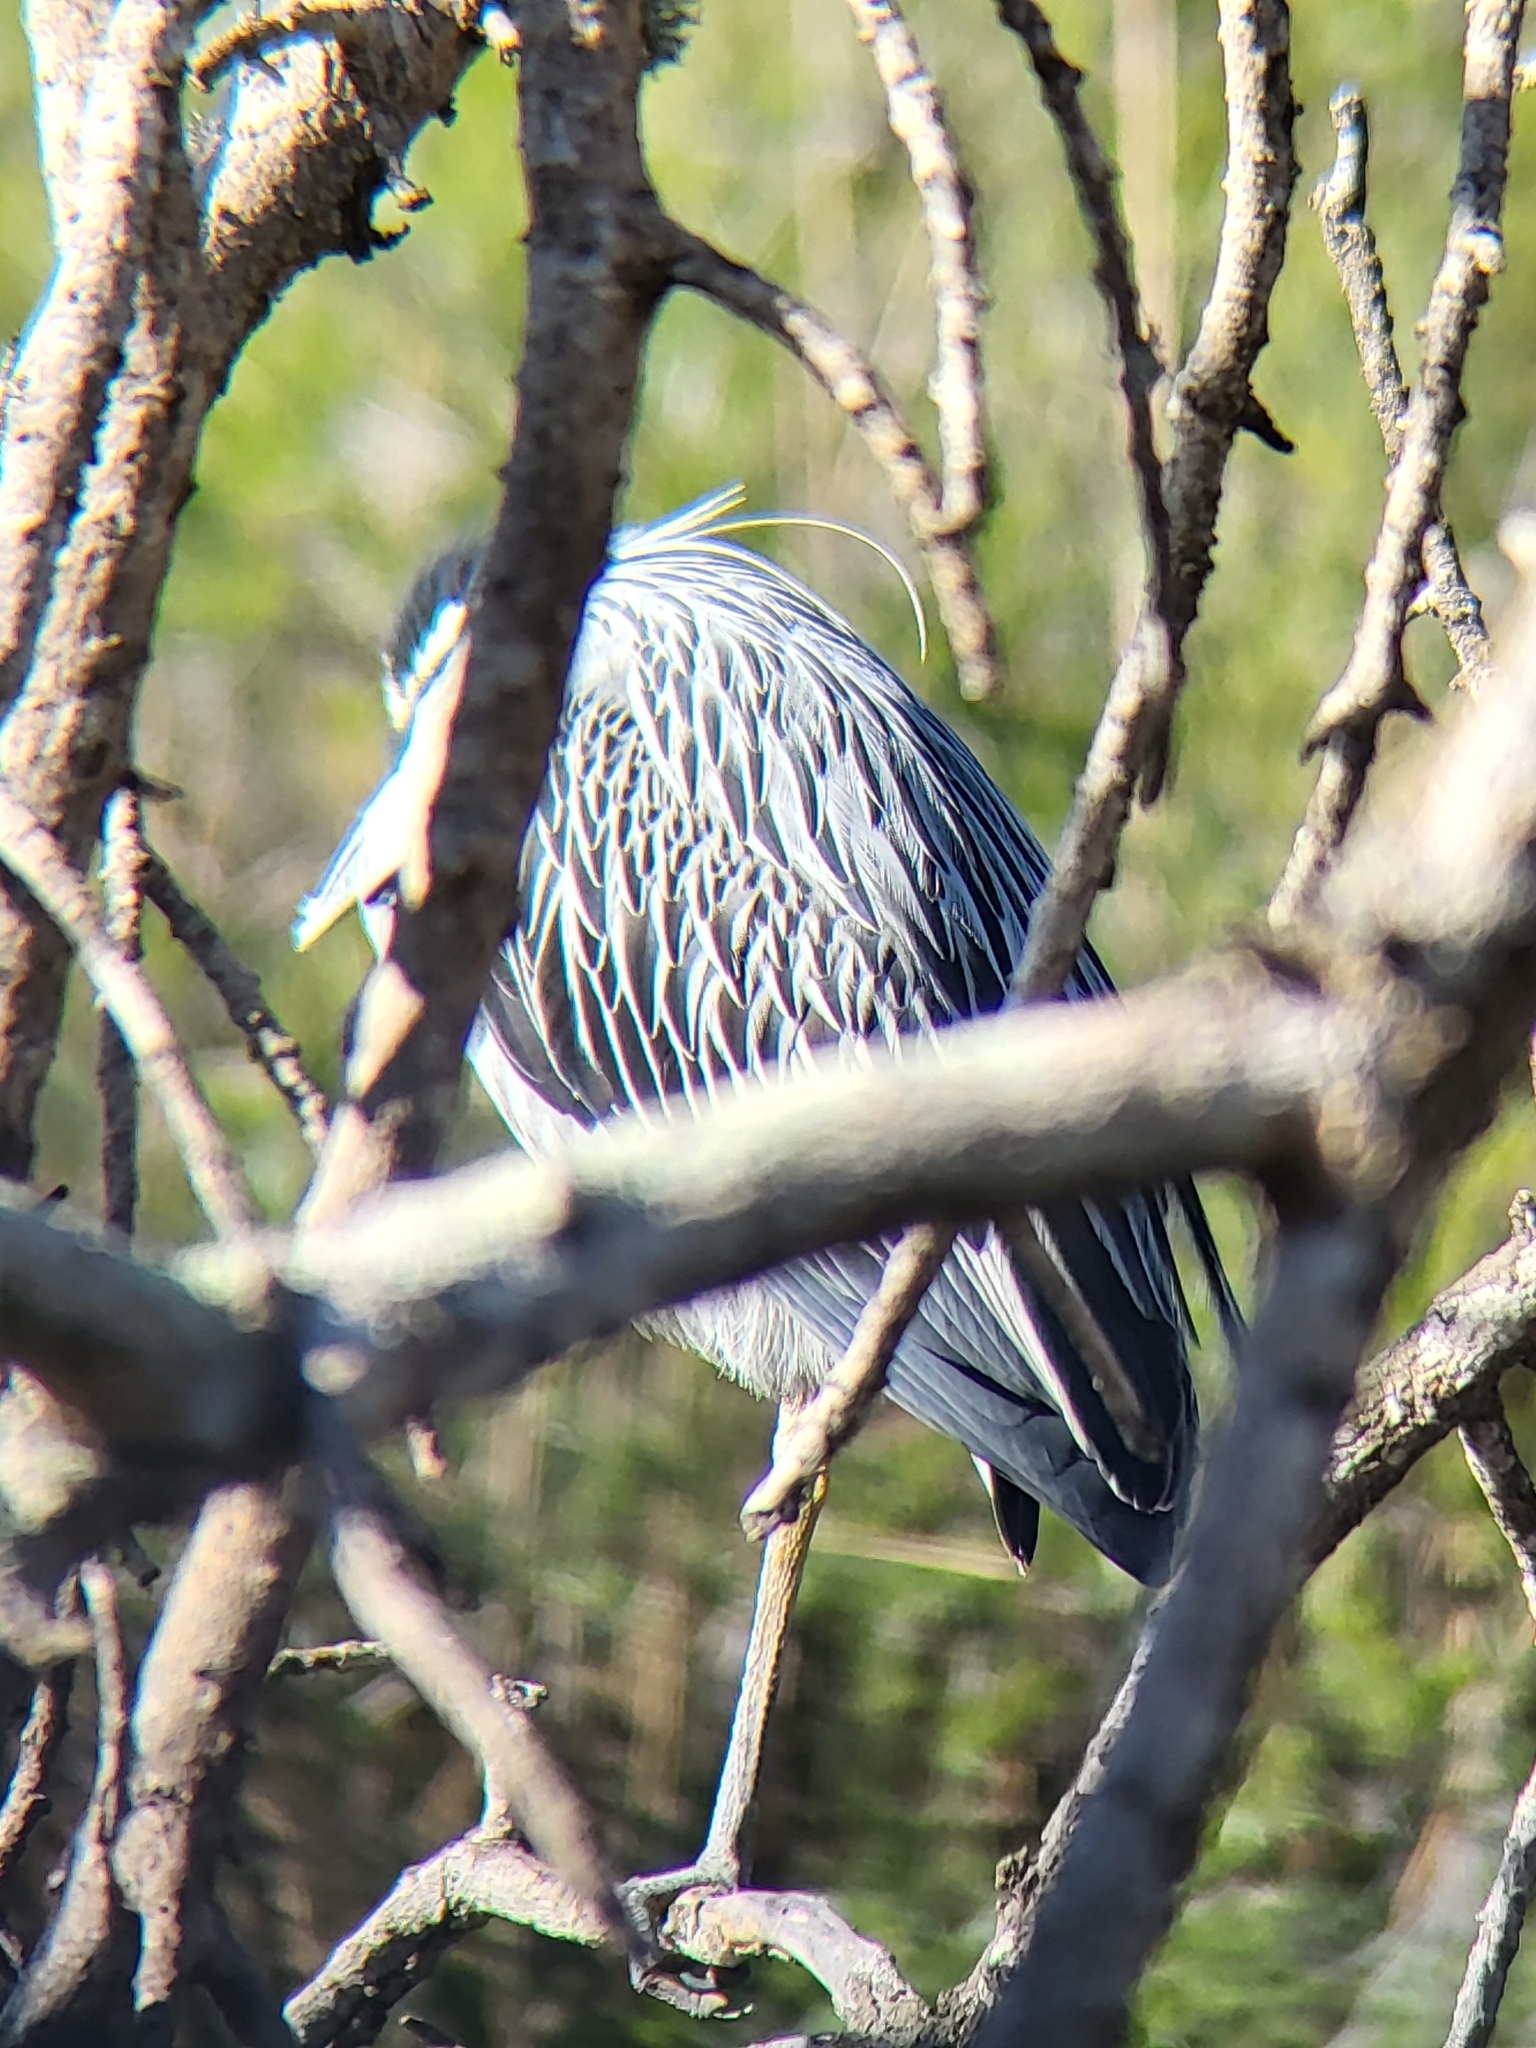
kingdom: Animalia
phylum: Chordata
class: Aves
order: Pelecaniformes
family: Ardeidae
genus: Nyctanassa
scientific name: Nyctanassa violacea
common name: Yellow-crowned night heron
